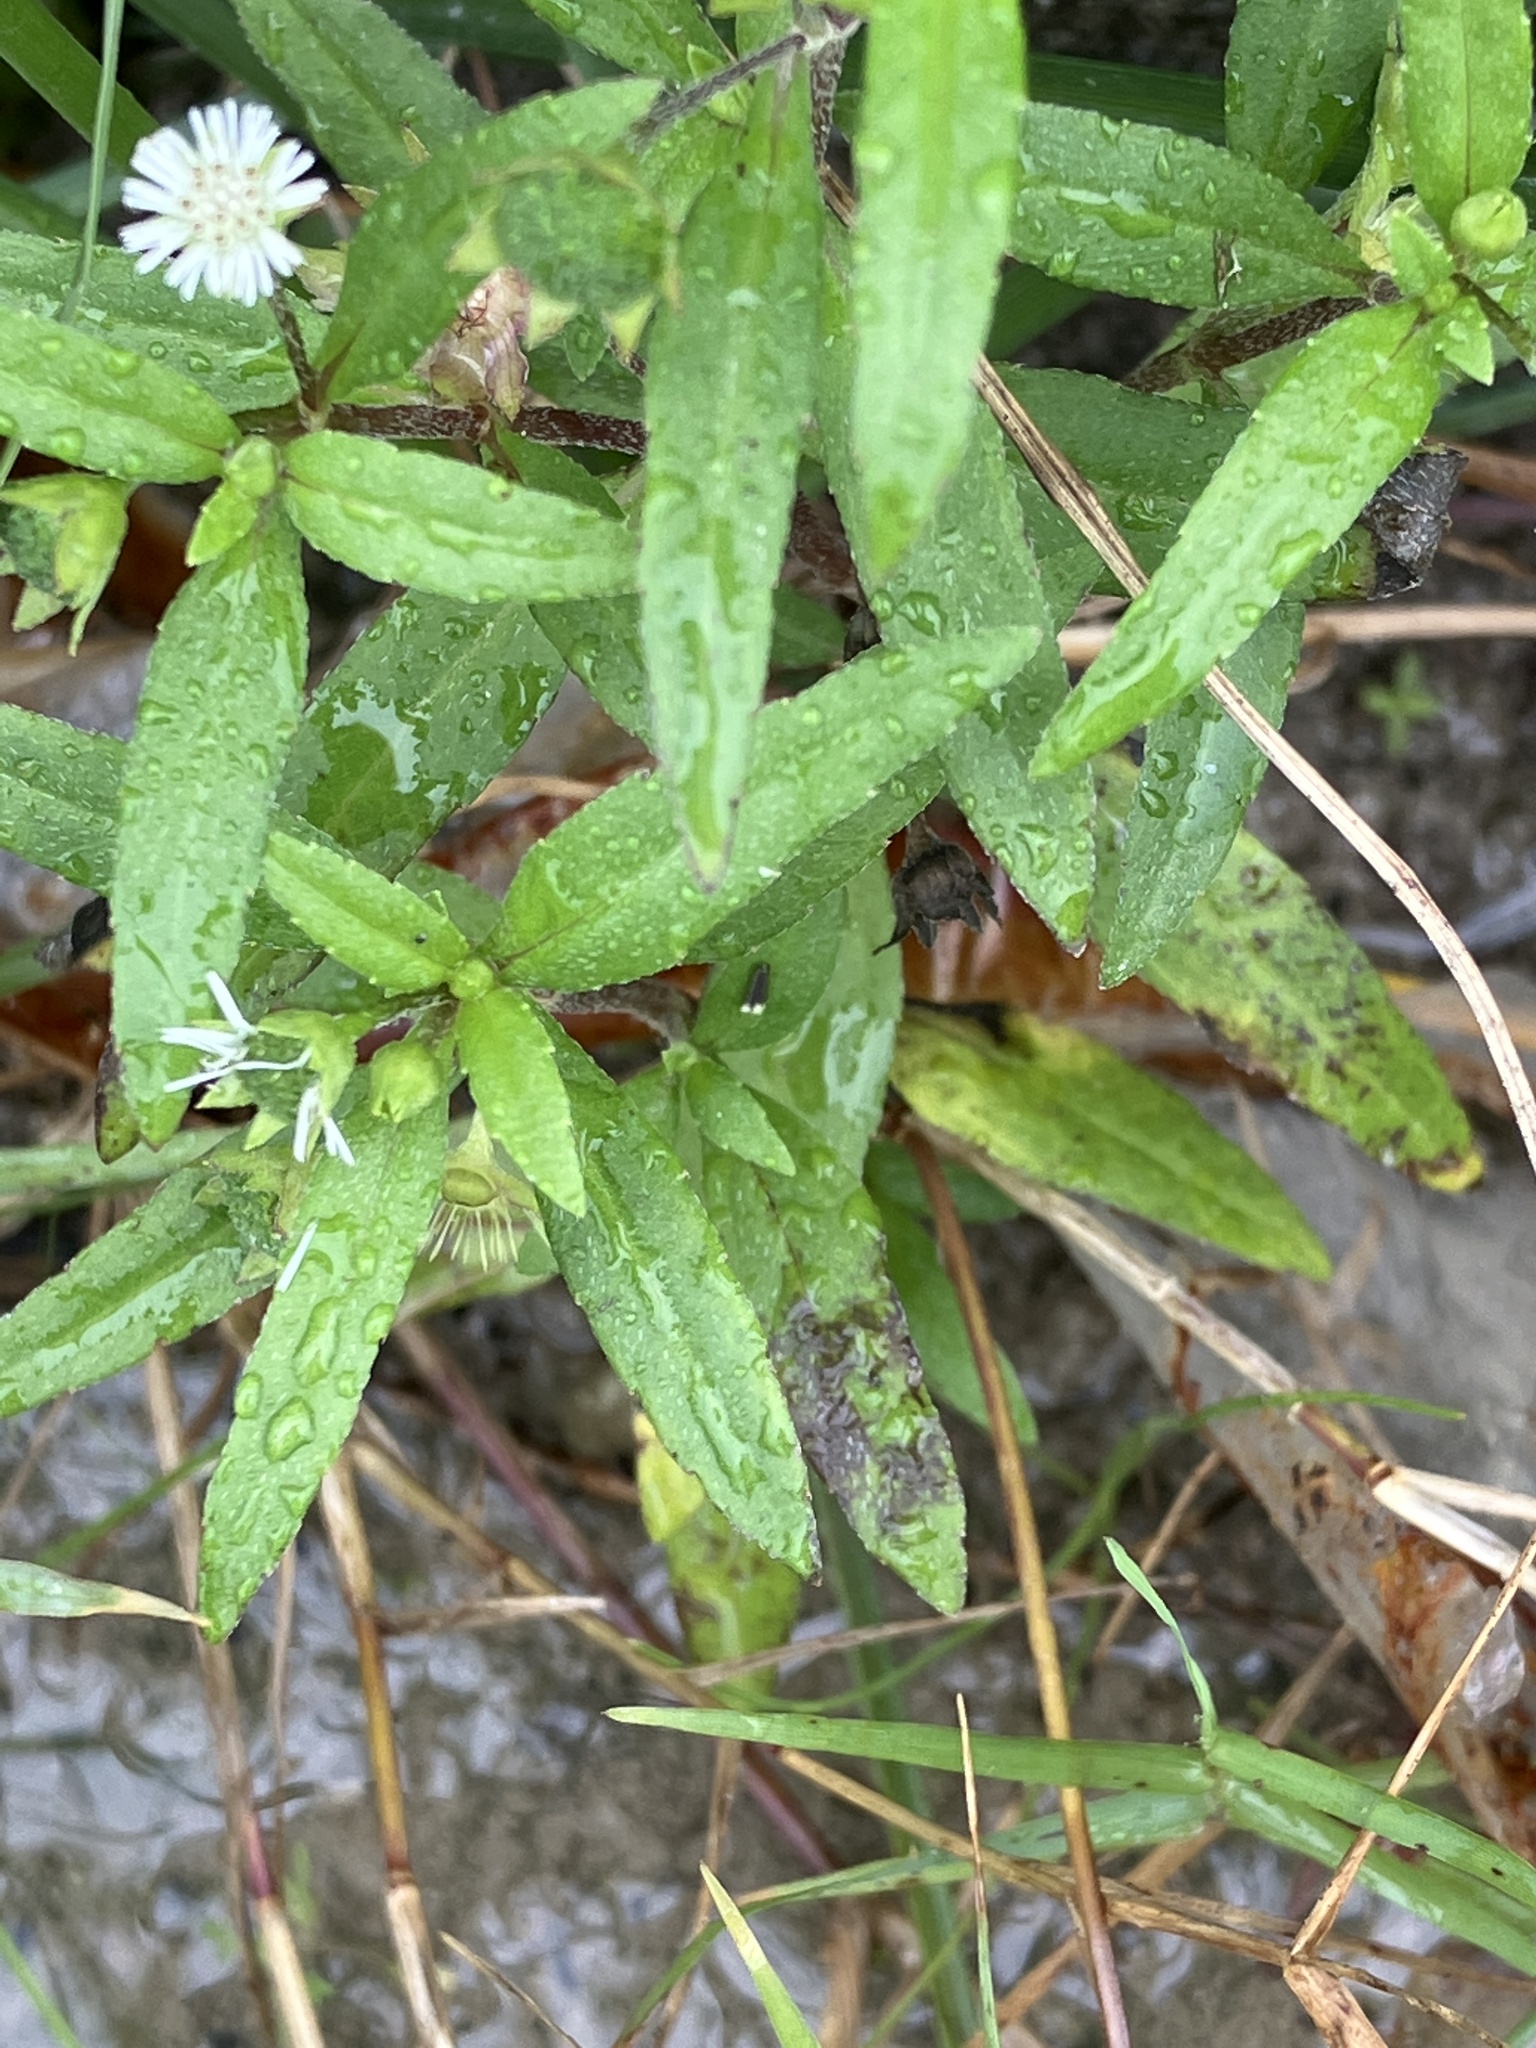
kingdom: Plantae
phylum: Tracheophyta
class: Magnoliopsida
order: Asterales
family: Asteraceae
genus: Eclipta
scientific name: Eclipta prostrata
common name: False daisy
